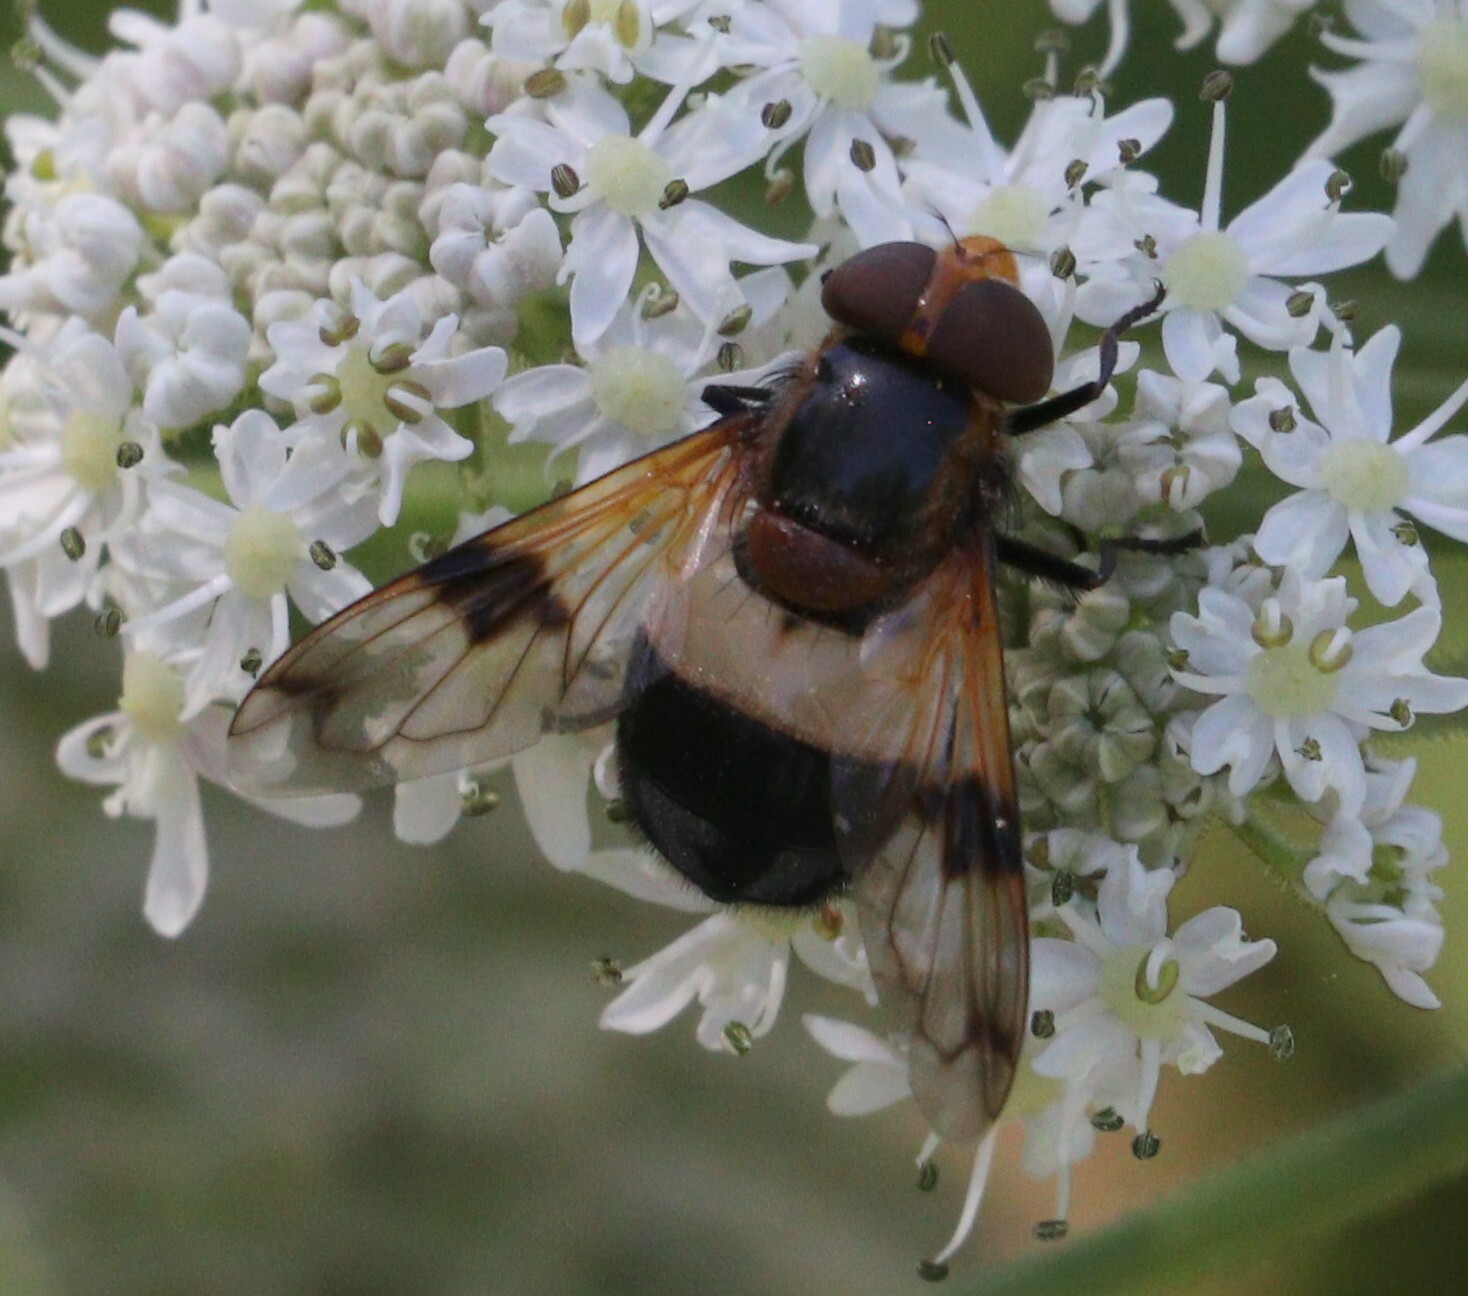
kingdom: Animalia
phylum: Arthropoda
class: Insecta
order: Diptera
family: Syrphidae
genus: Volucella
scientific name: Volucella pellucens
